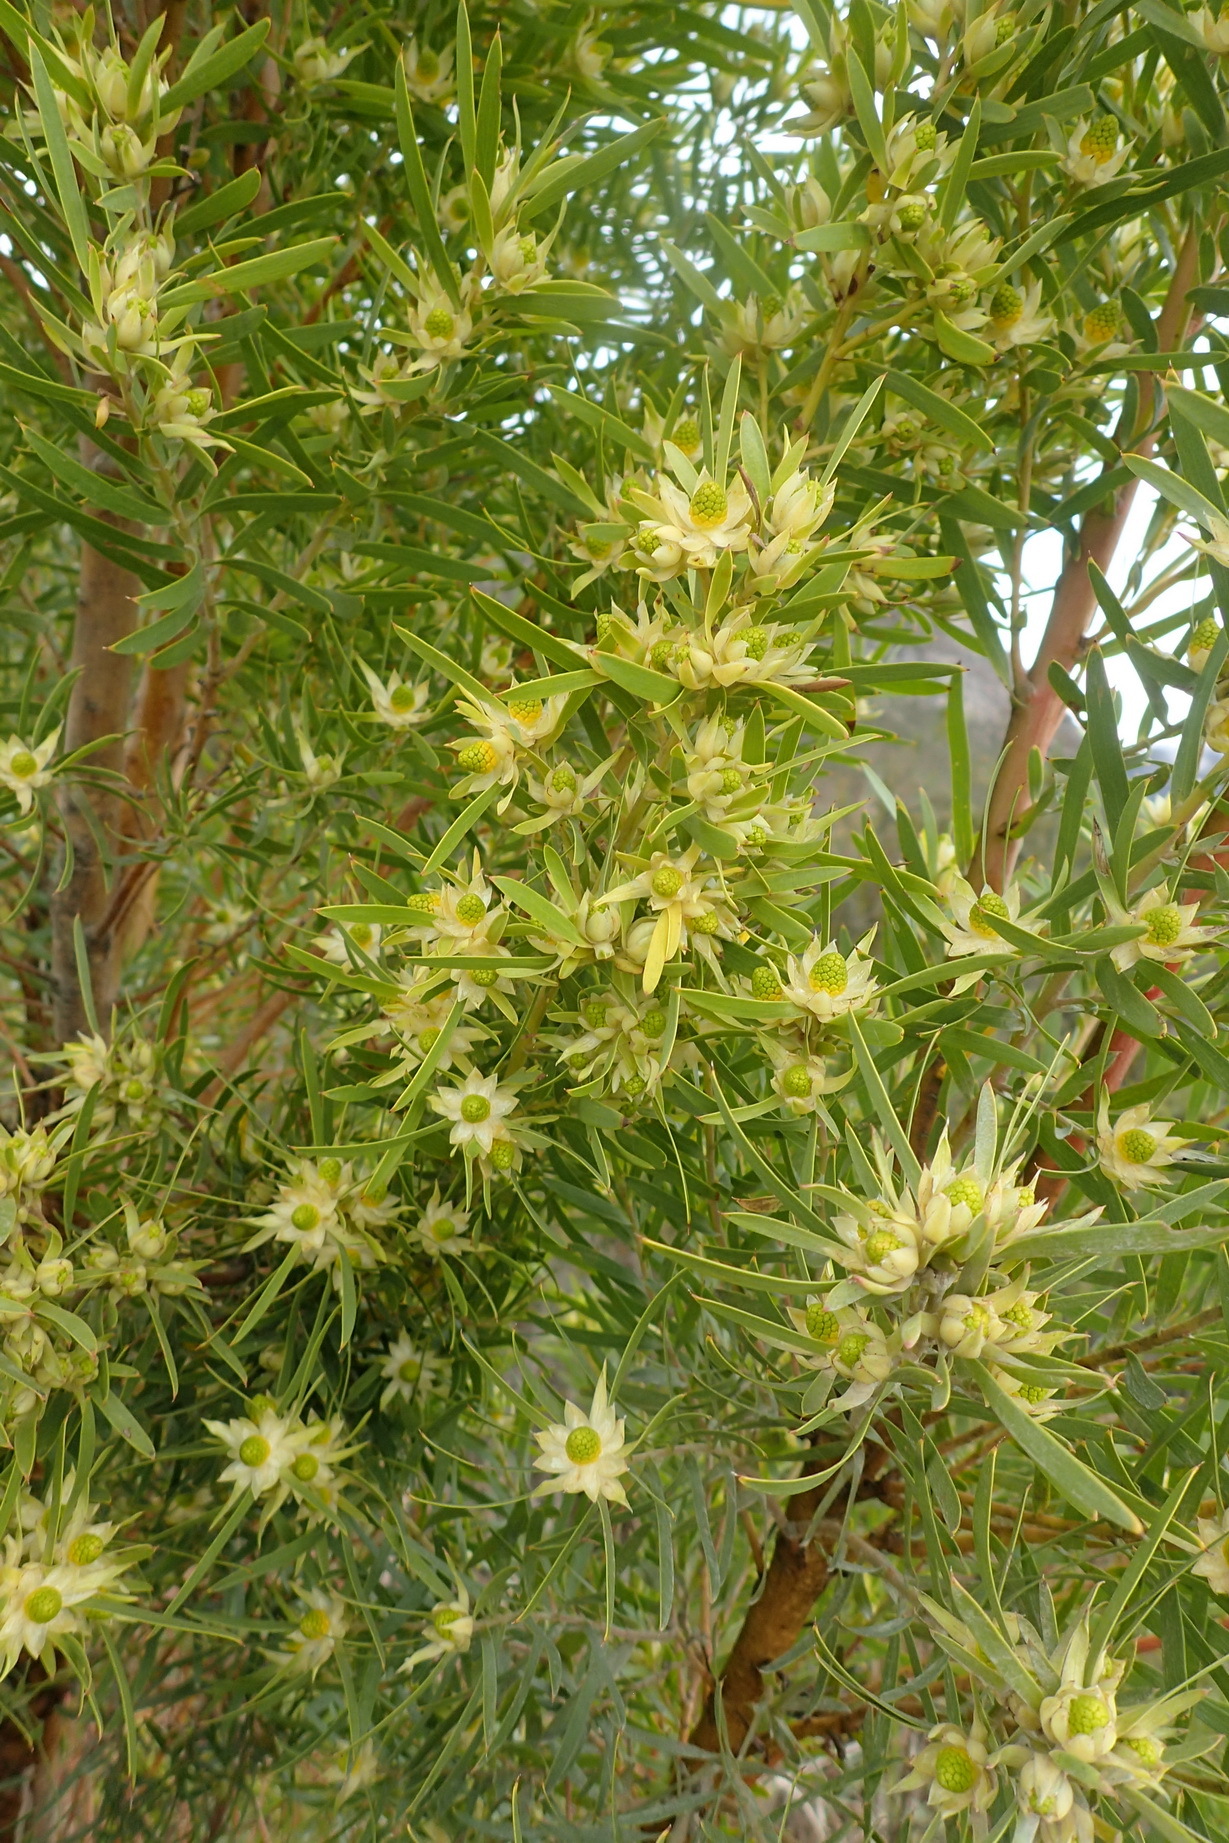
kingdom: Plantae
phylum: Tracheophyta
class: Magnoliopsida
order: Proteales
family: Proteaceae
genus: Leucadendron
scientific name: Leucadendron salicifolium
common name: Common stream conebush
